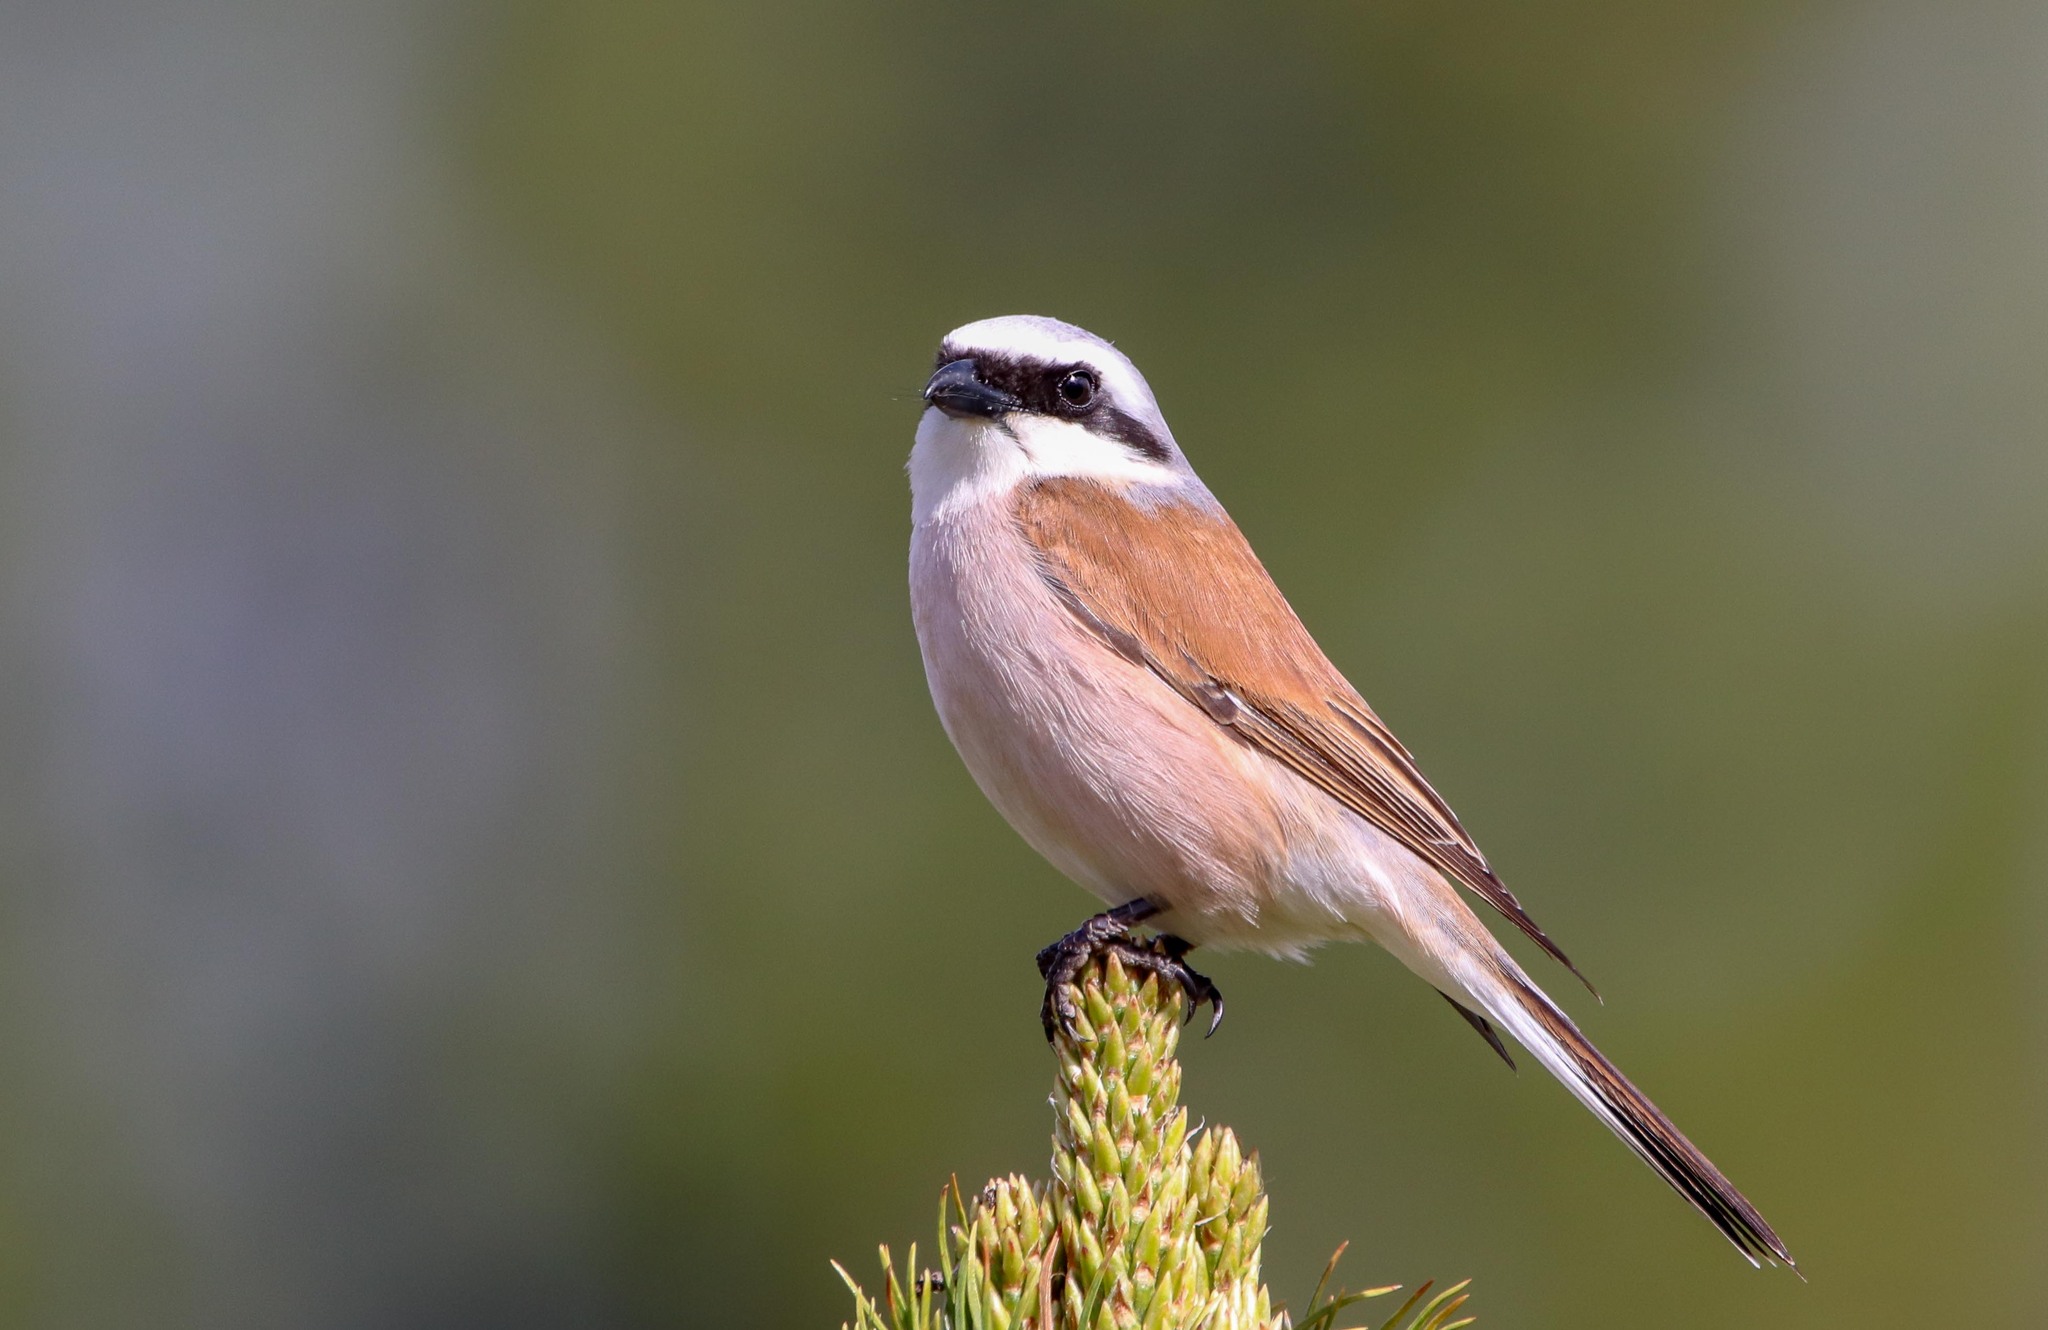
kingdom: Animalia
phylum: Chordata
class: Aves
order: Passeriformes
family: Laniidae
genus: Lanius
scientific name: Lanius collurio
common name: Red-backed shrike
